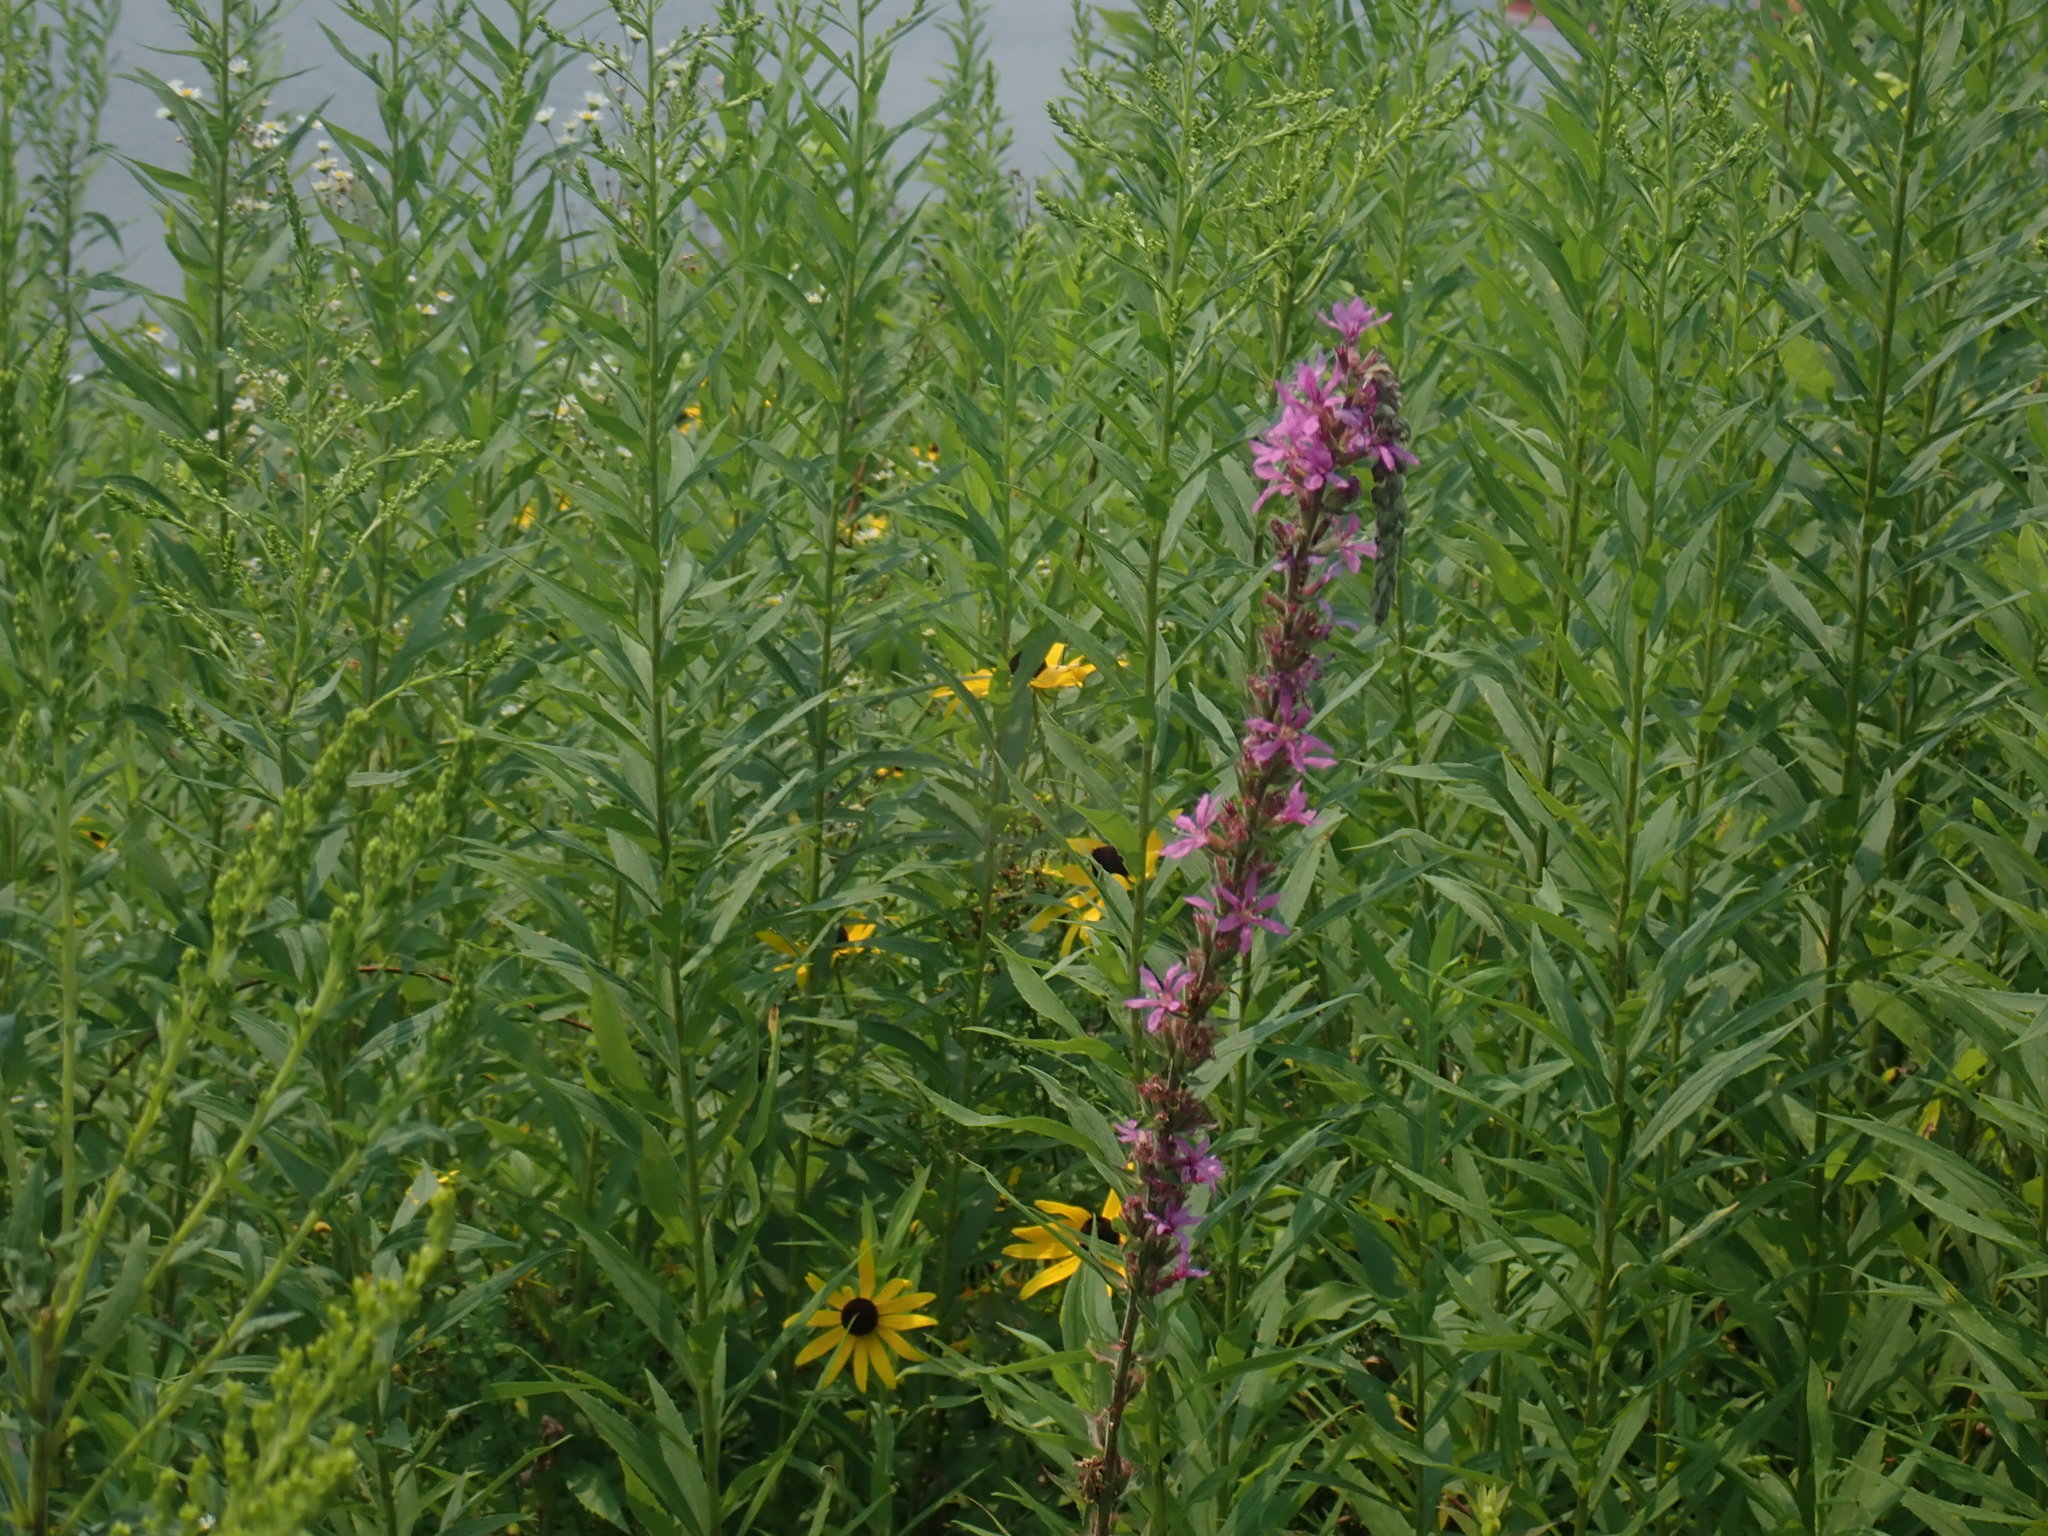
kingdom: Plantae
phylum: Tracheophyta
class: Magnoliopsida
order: Myrtales
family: Lythraceae
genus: Lythrum
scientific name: Lythrum salicaria
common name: Purple loosestrife
